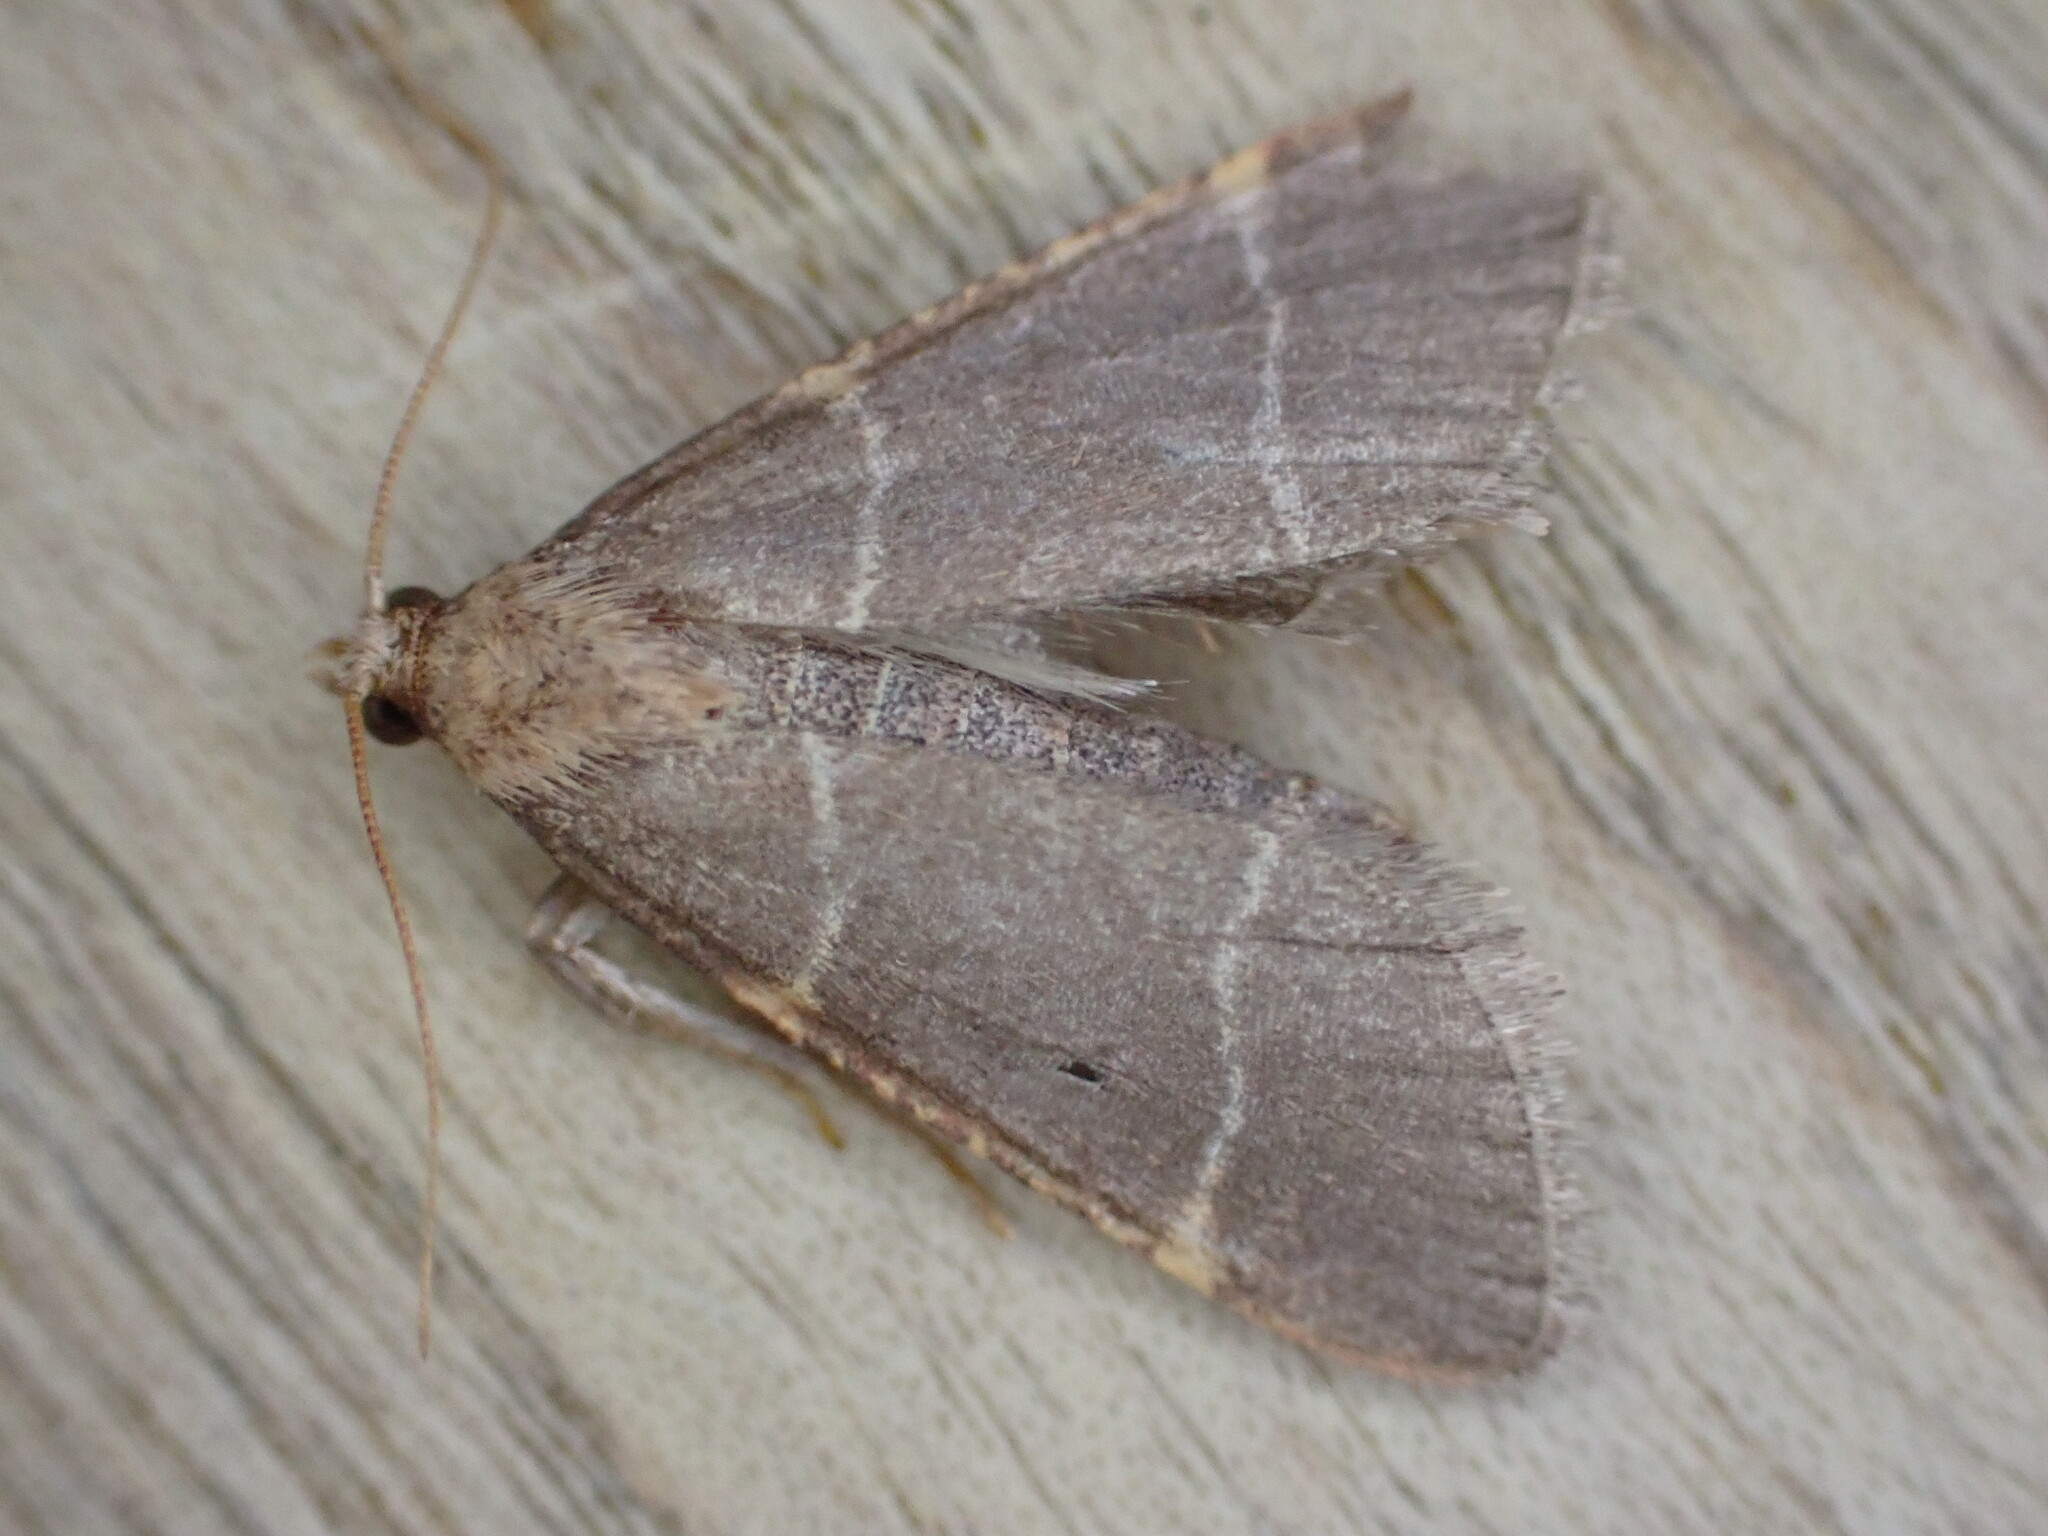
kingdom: Animalia
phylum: Arthropoda
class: Insecta
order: Lepidoptera
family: Pyralidae
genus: Hypsopygia
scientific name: Hypsopygia glaucinalis
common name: Double-striped tabby
